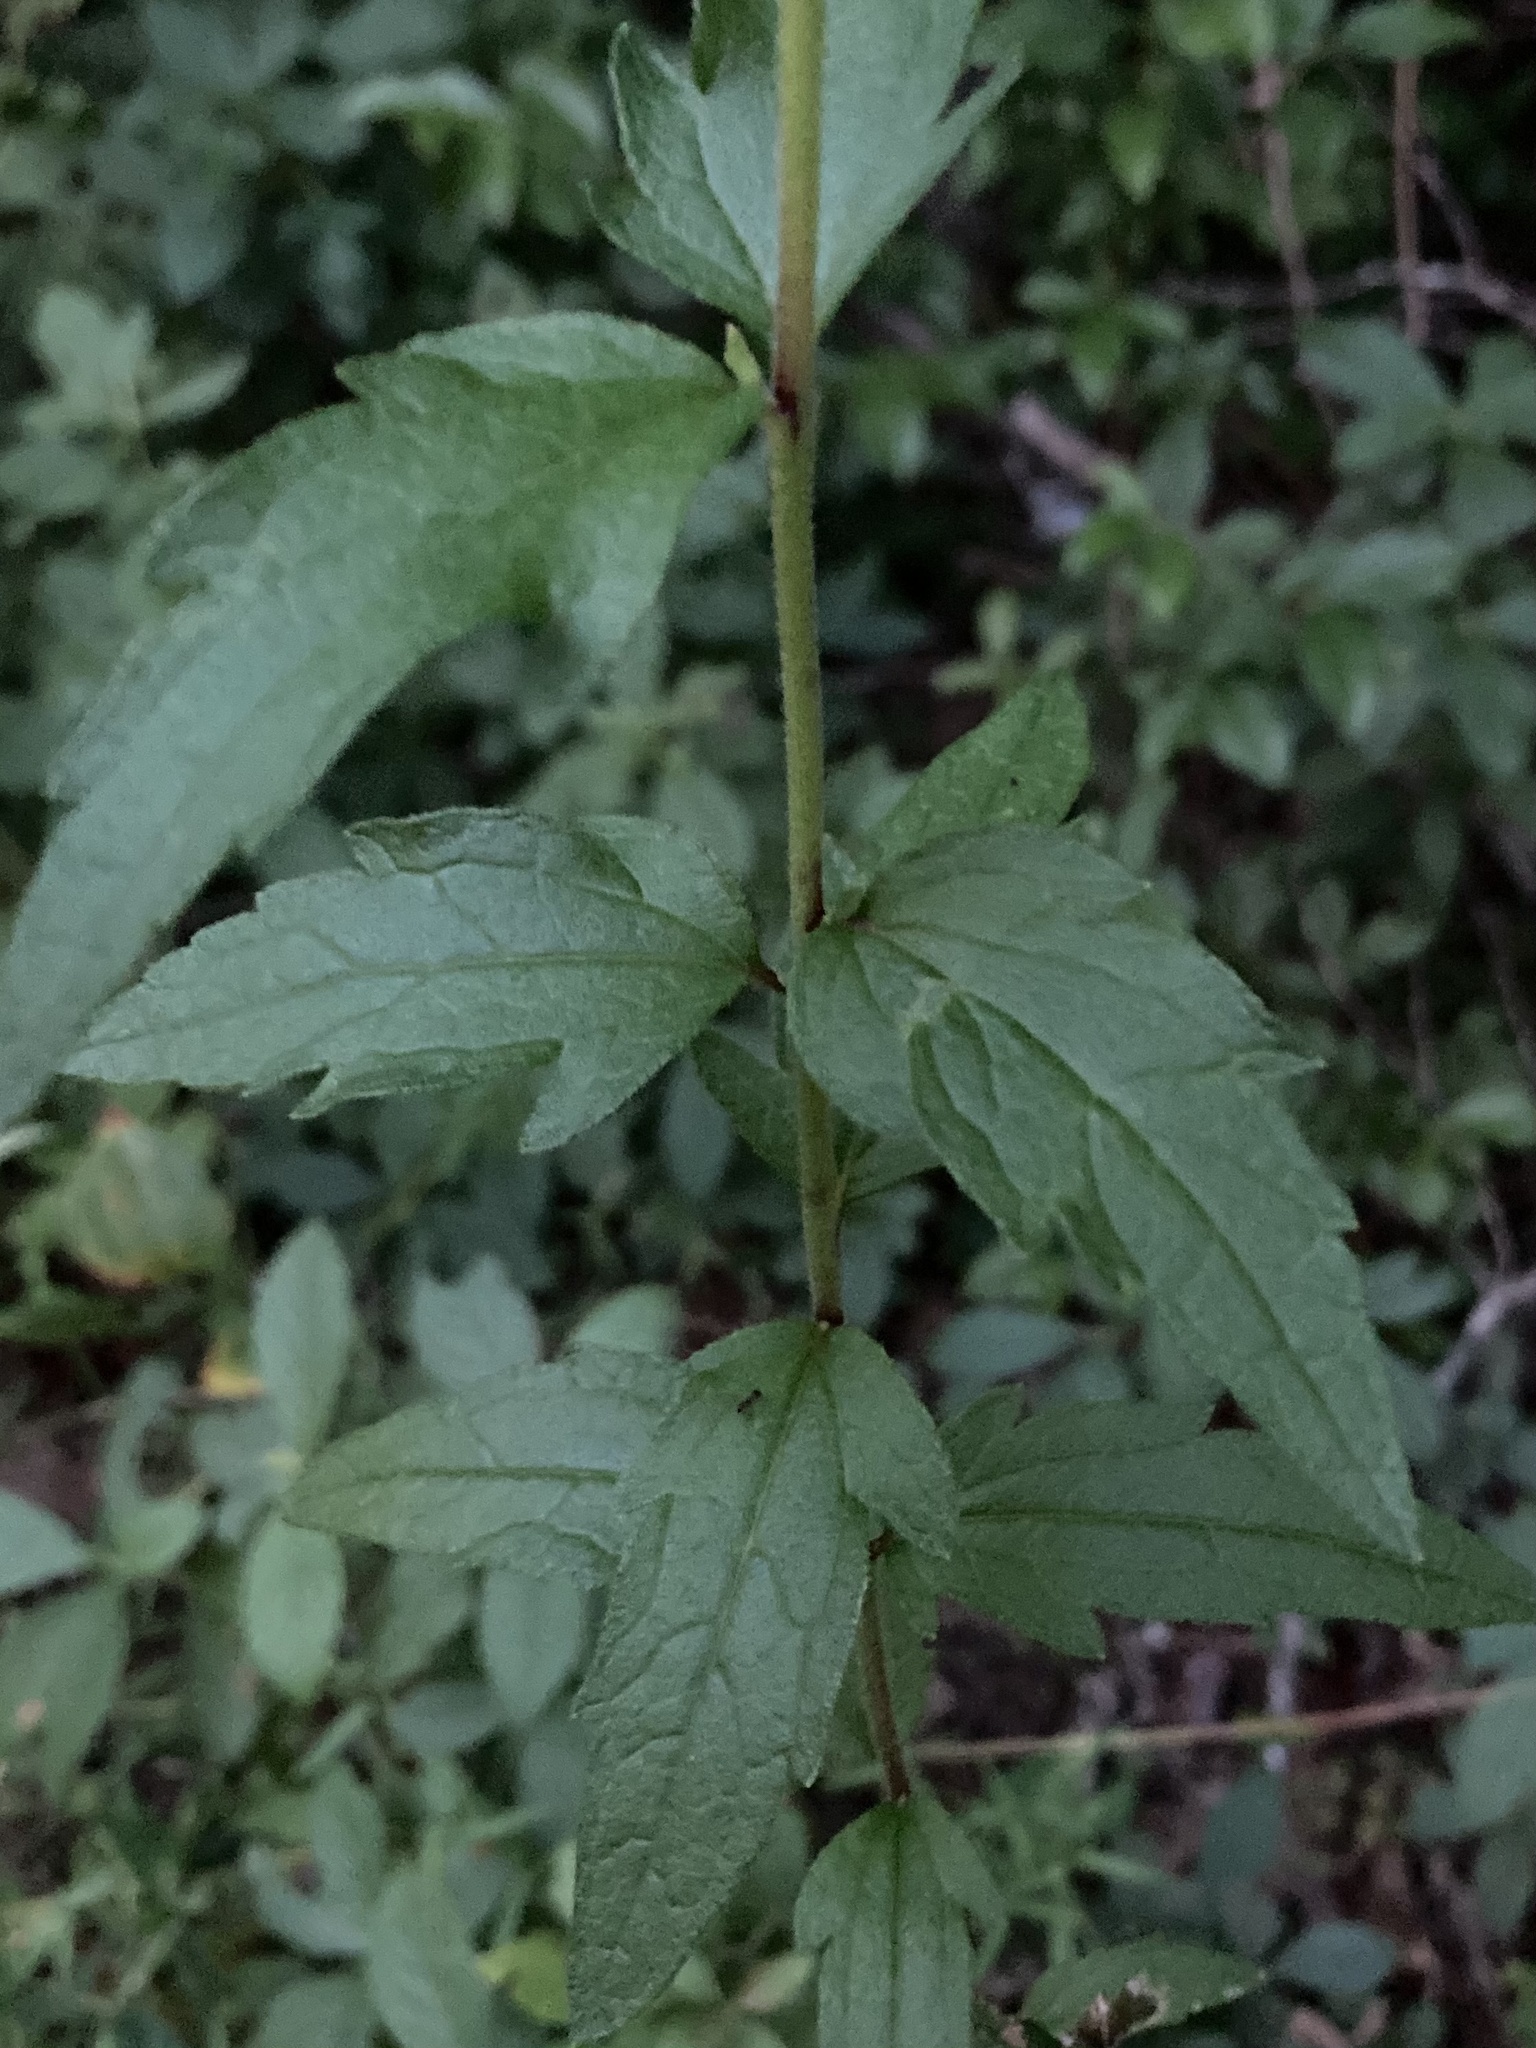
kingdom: Plantae
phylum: Tracheophyta
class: Magnoliopsida
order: Asterales
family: Asteraceae
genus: Eupatorium
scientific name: Eupatorium pilosum
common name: Rough boneset
